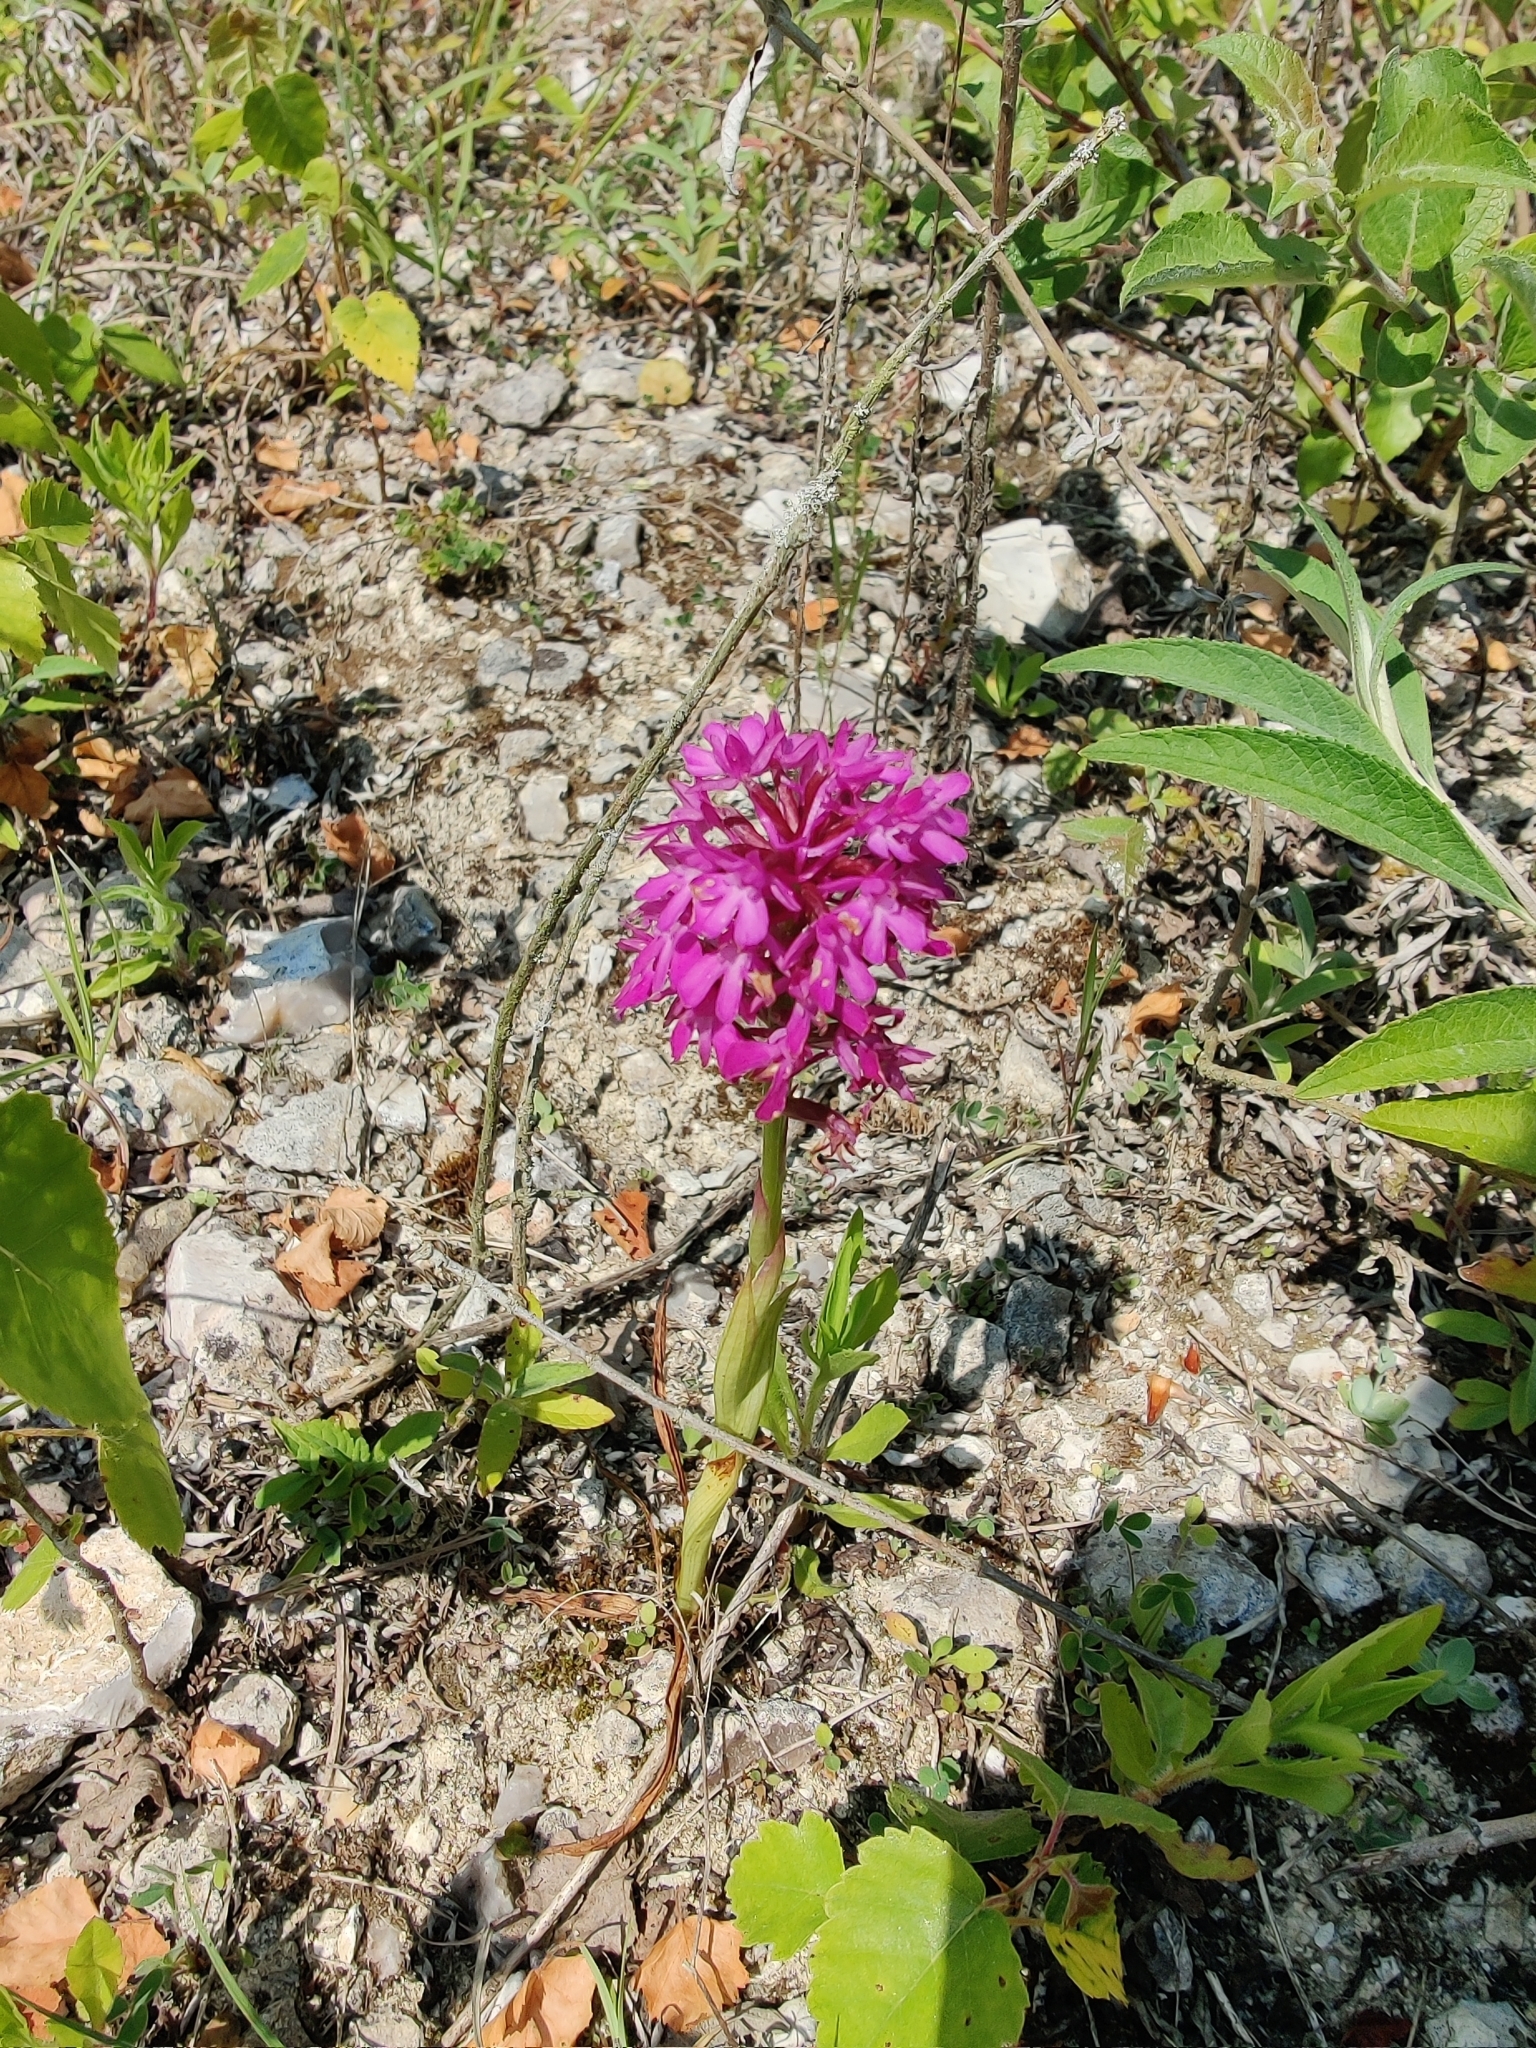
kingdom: Plantae
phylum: Tracheophyta
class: Liliopsida
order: Asparagales
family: Orchidaceae
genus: Anacamptis
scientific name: Anacamptis pyramidalis
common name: Pyramidal orchid
